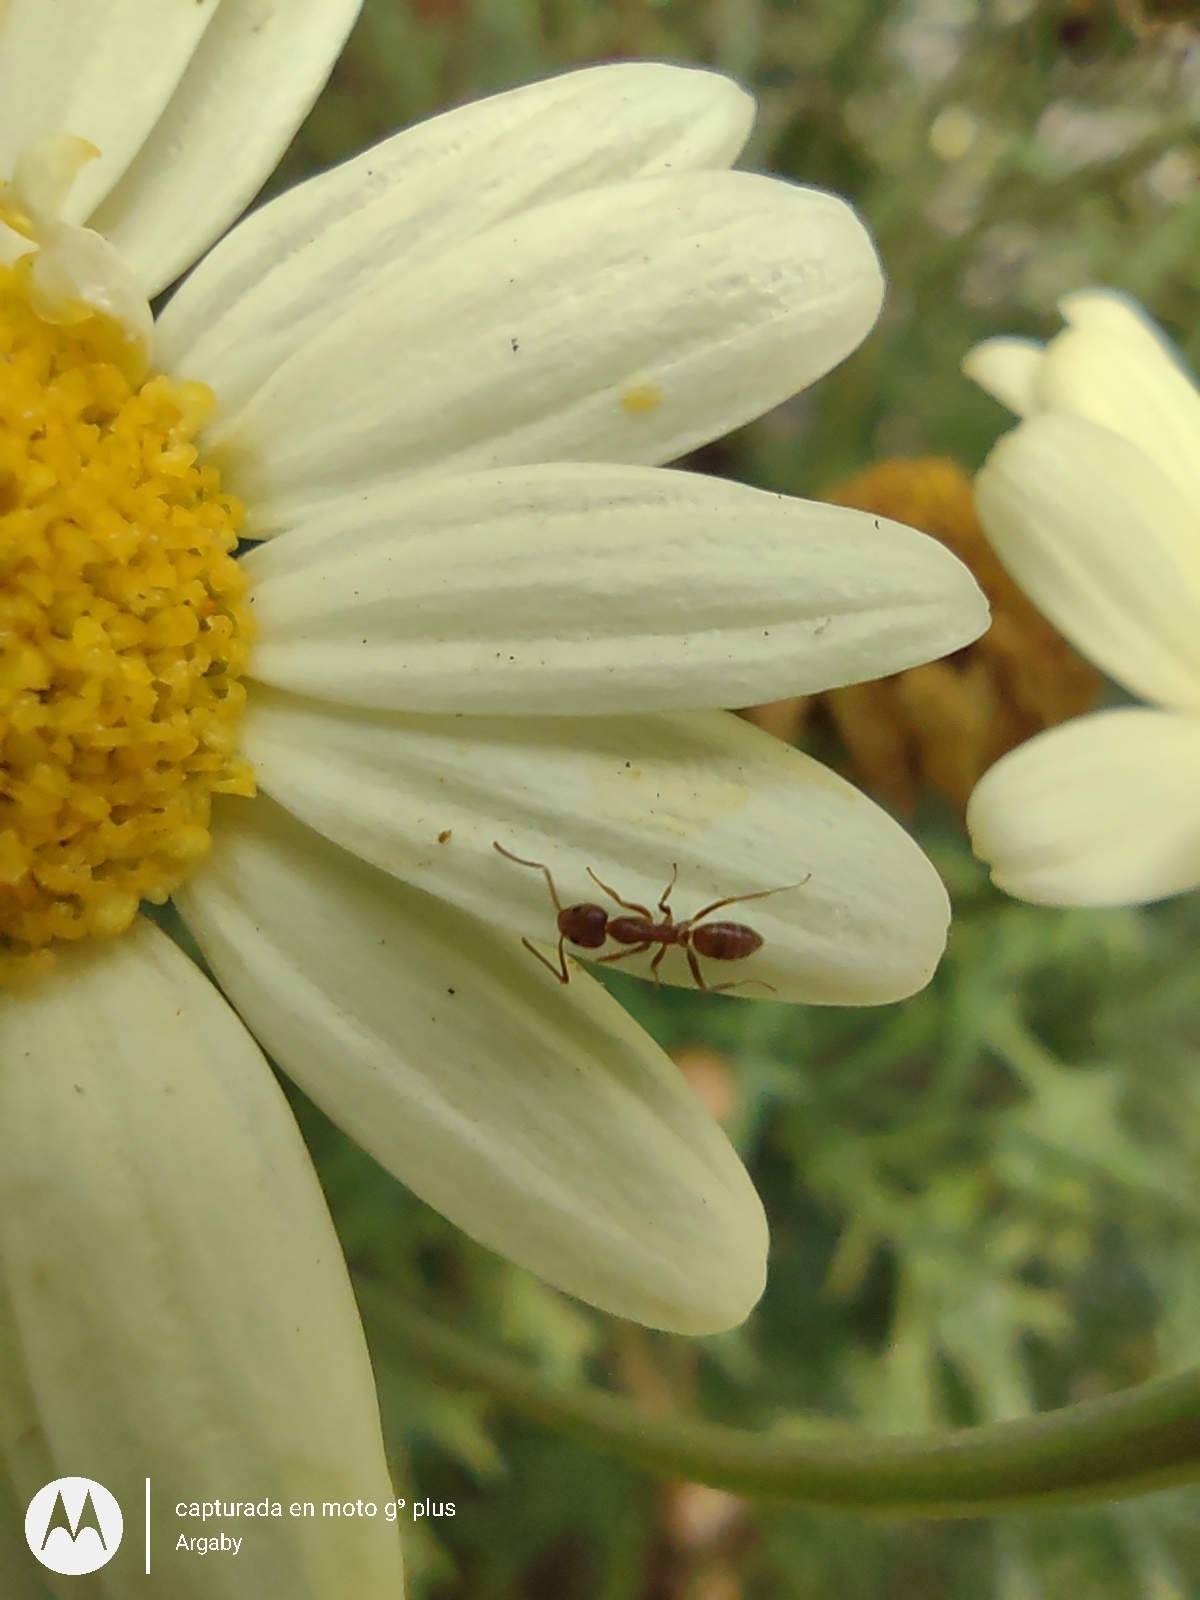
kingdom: Animalia
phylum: Arthropoda
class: Insecta
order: Hymenoptera
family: Formicidae
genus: Linepithema
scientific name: Linepithema humile
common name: Argentine ant
